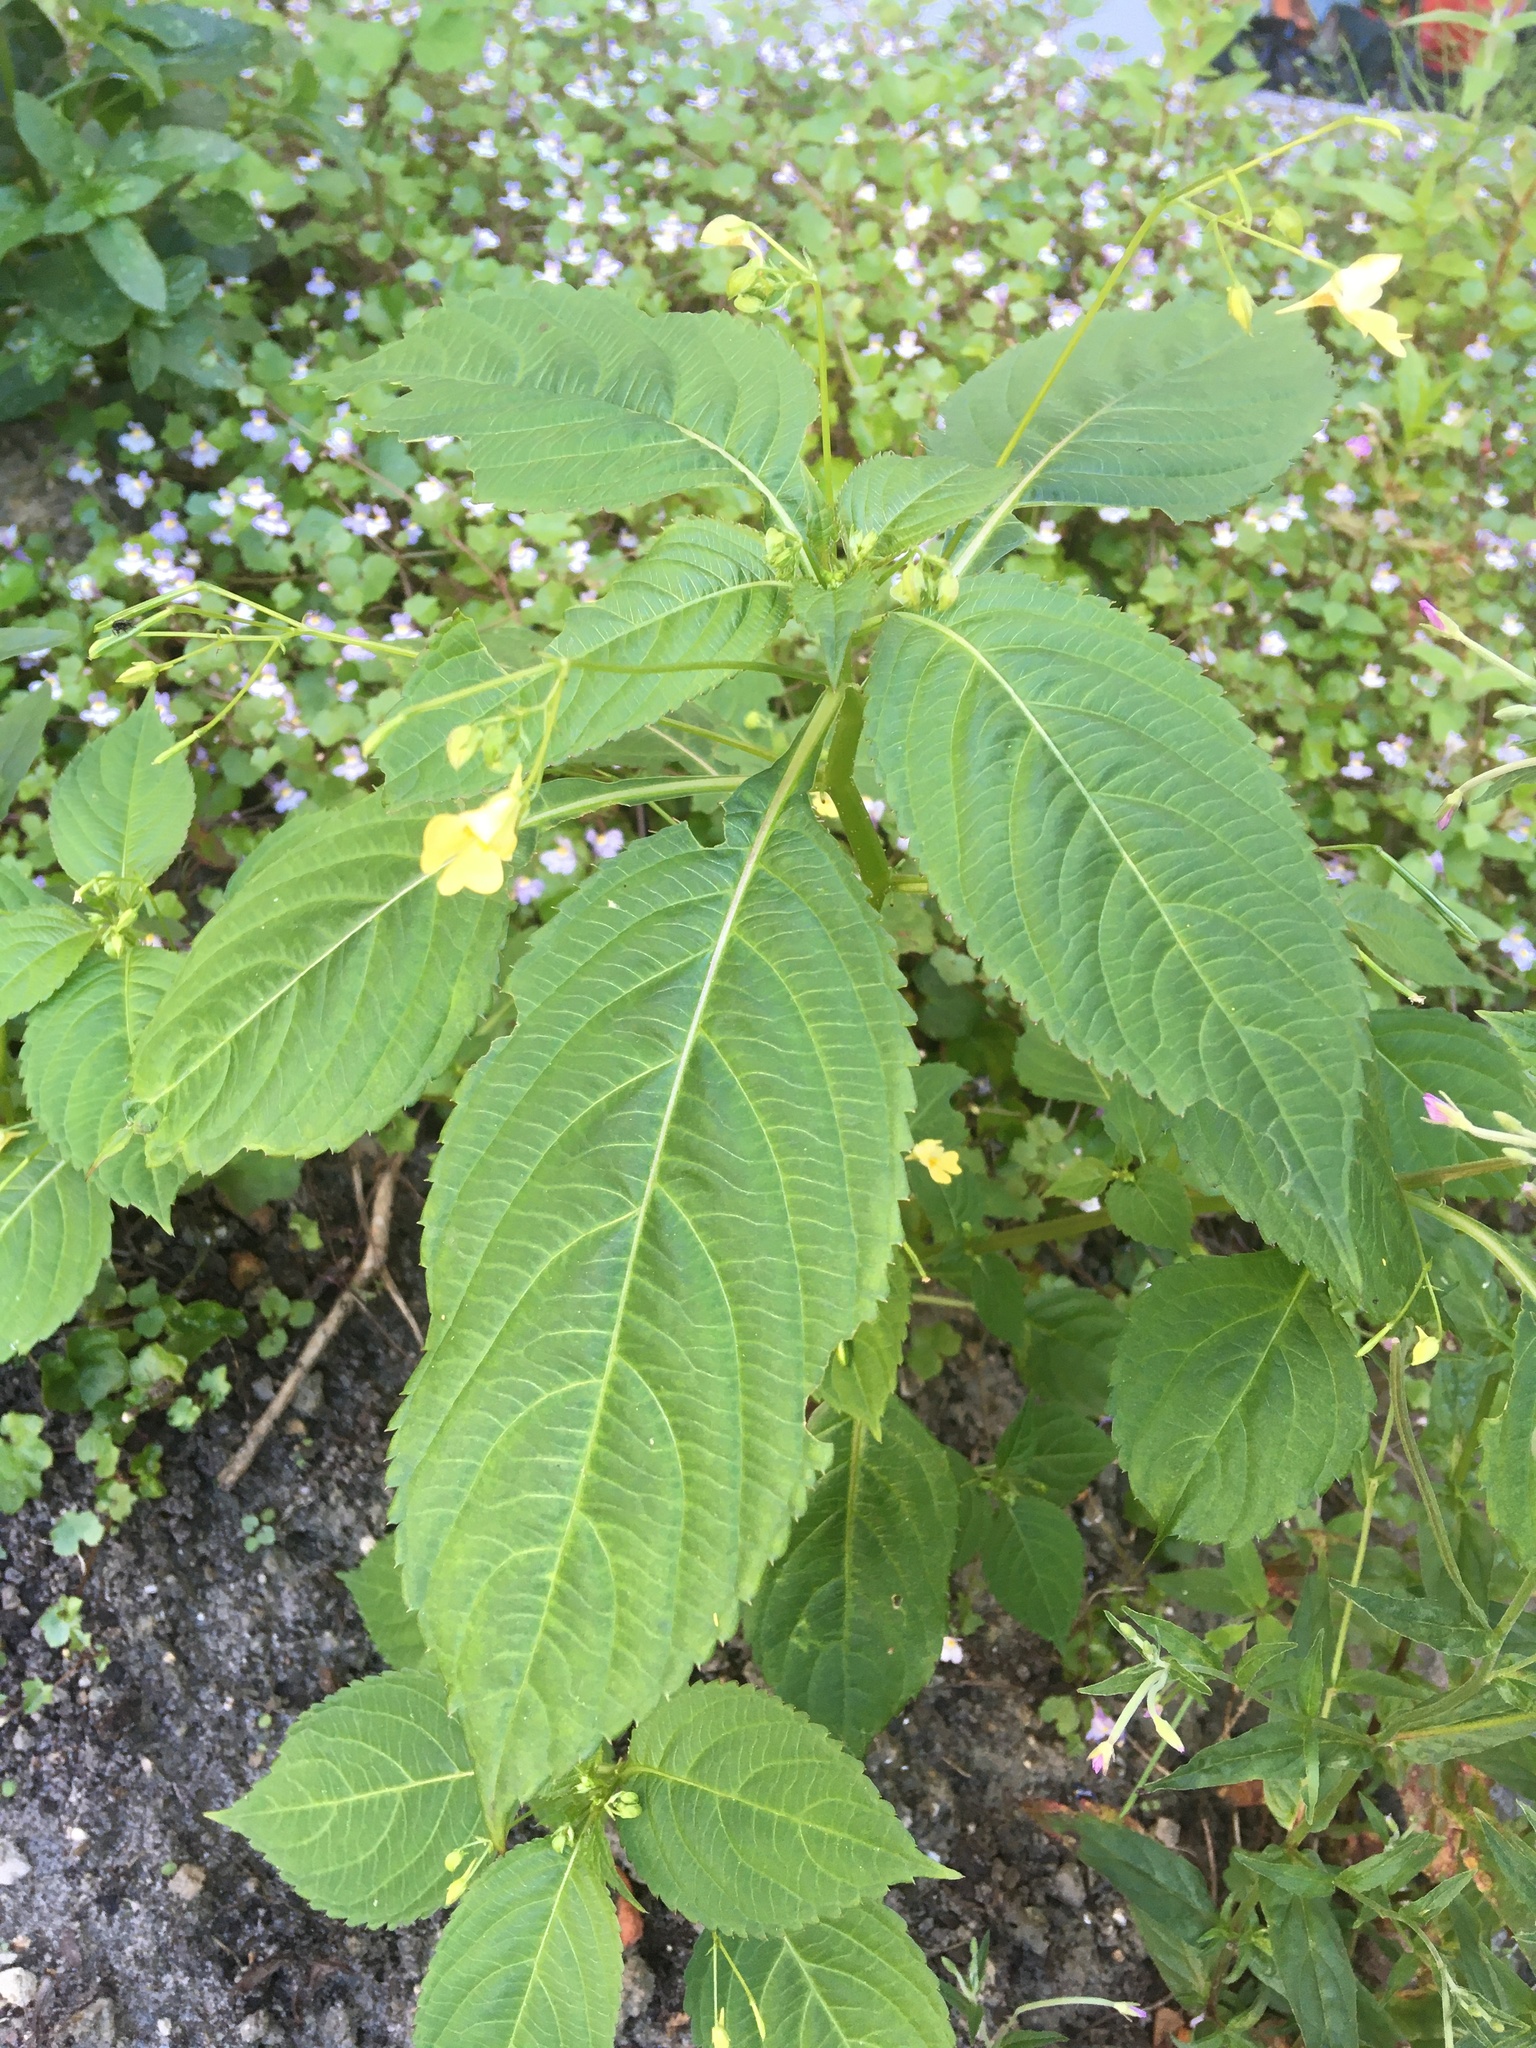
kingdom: Plantae
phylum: Tracheophyta
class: Magnoliopsida
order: Ericales
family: Balsaminaceae
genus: Impatiens
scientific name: Impatiens parviflora
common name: Small balsam
